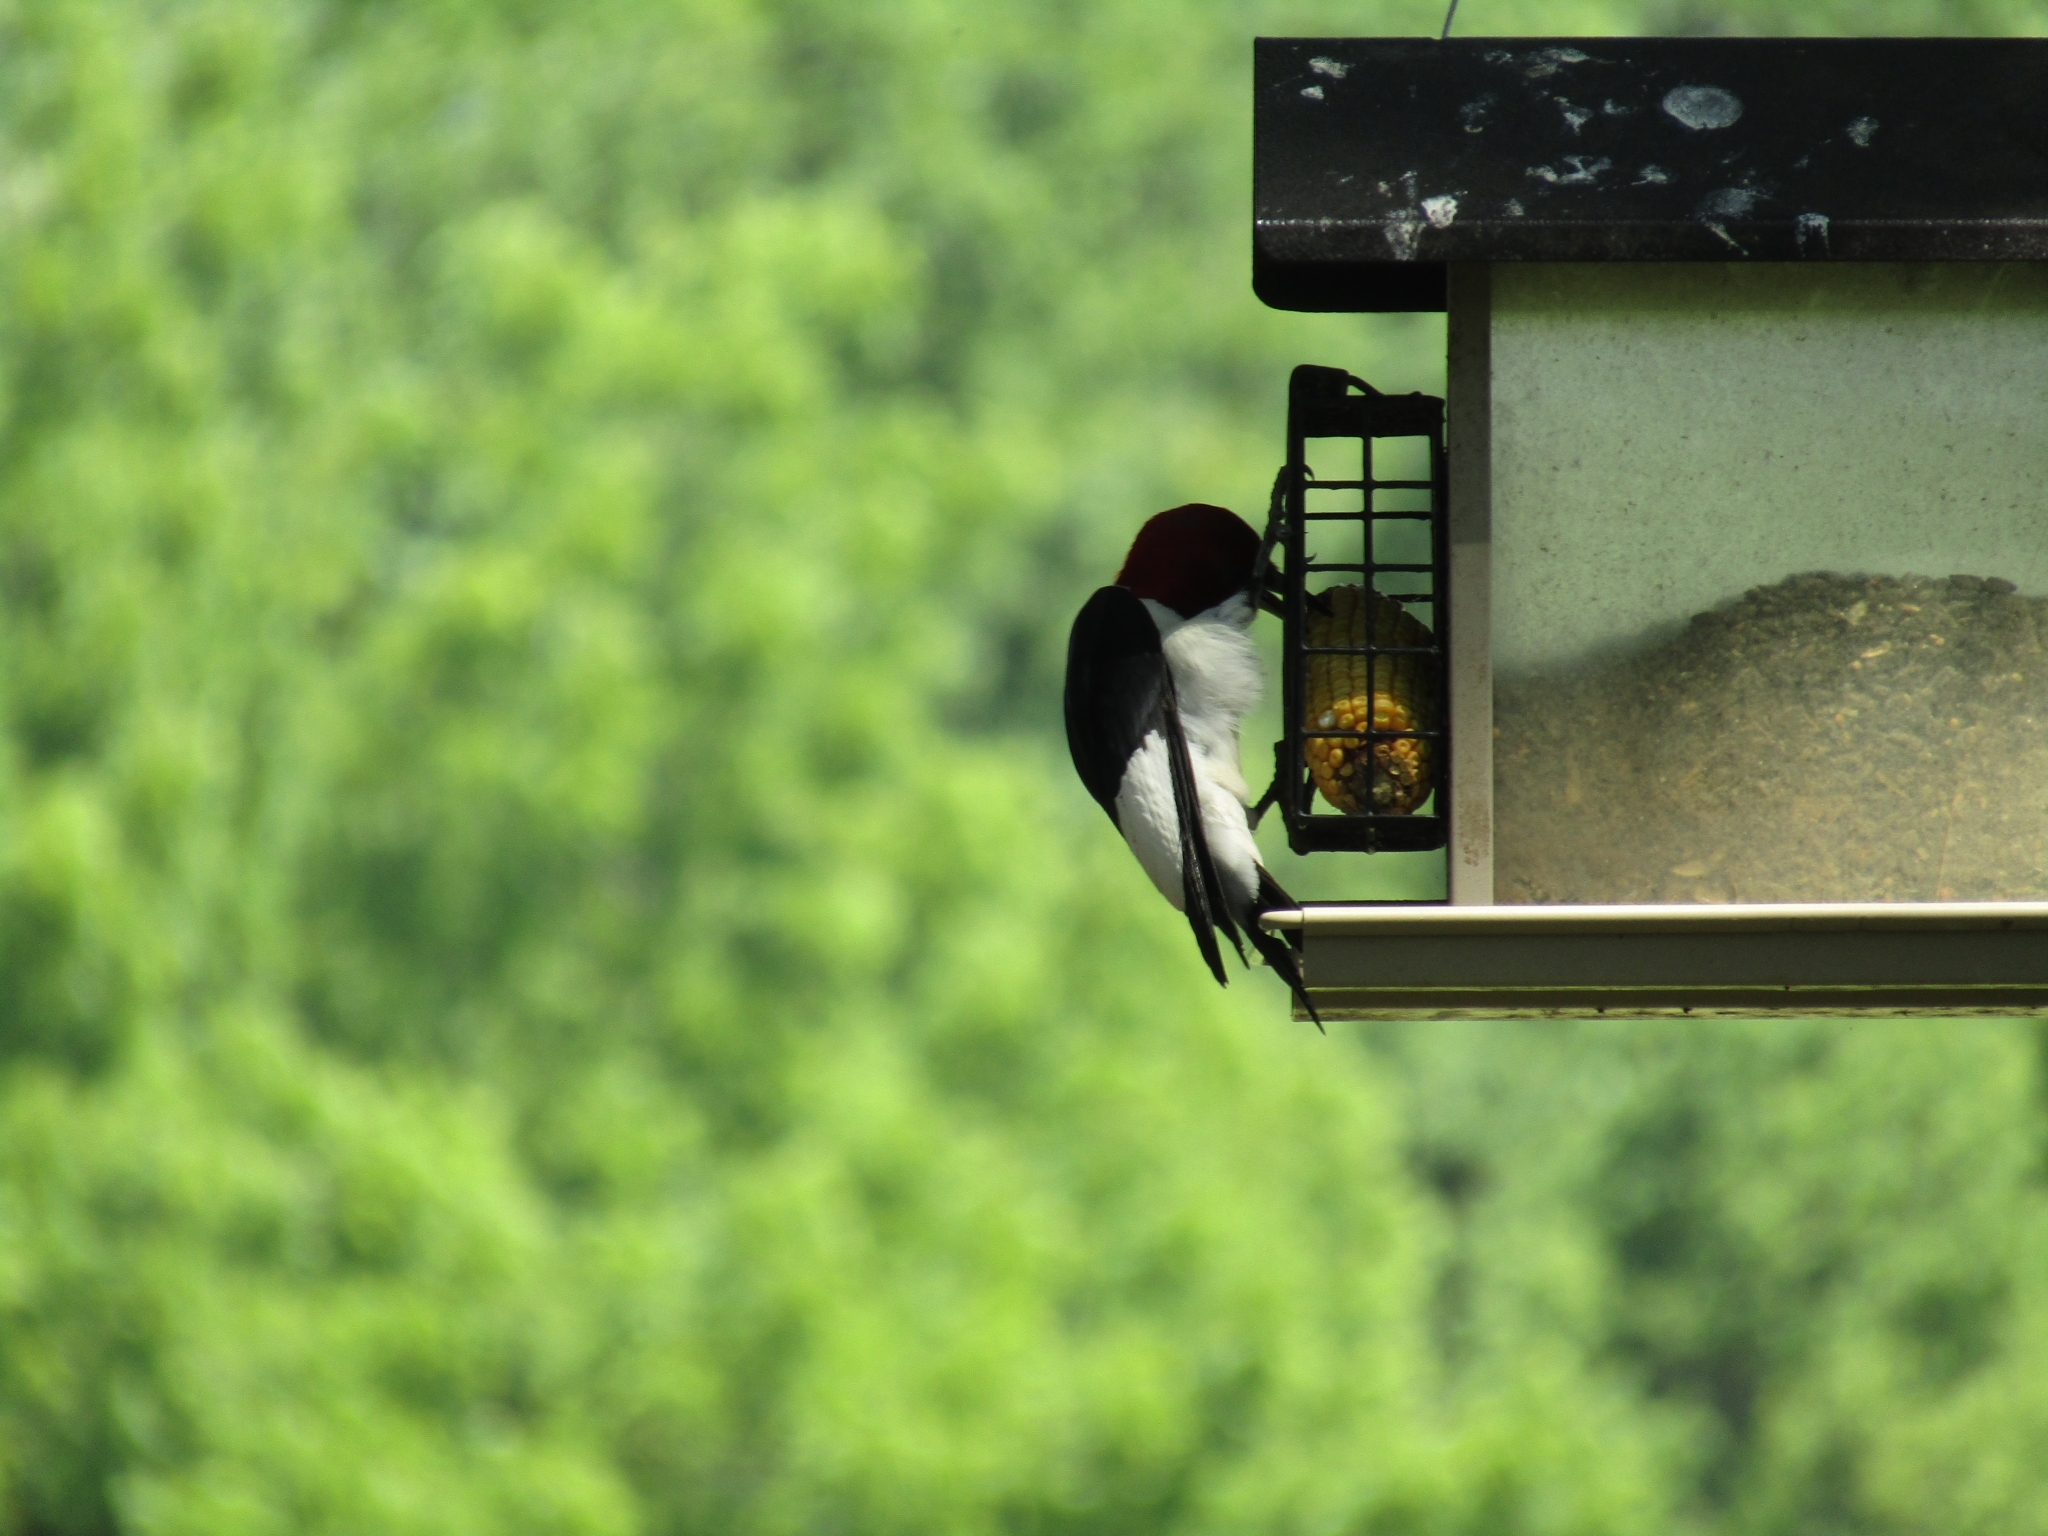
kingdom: Animalia
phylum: Chordata
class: Aves
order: Piciformes
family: Picidae
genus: Melanerpes
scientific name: Melanerpes erythrocephalus
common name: Red-headed woodpecker
